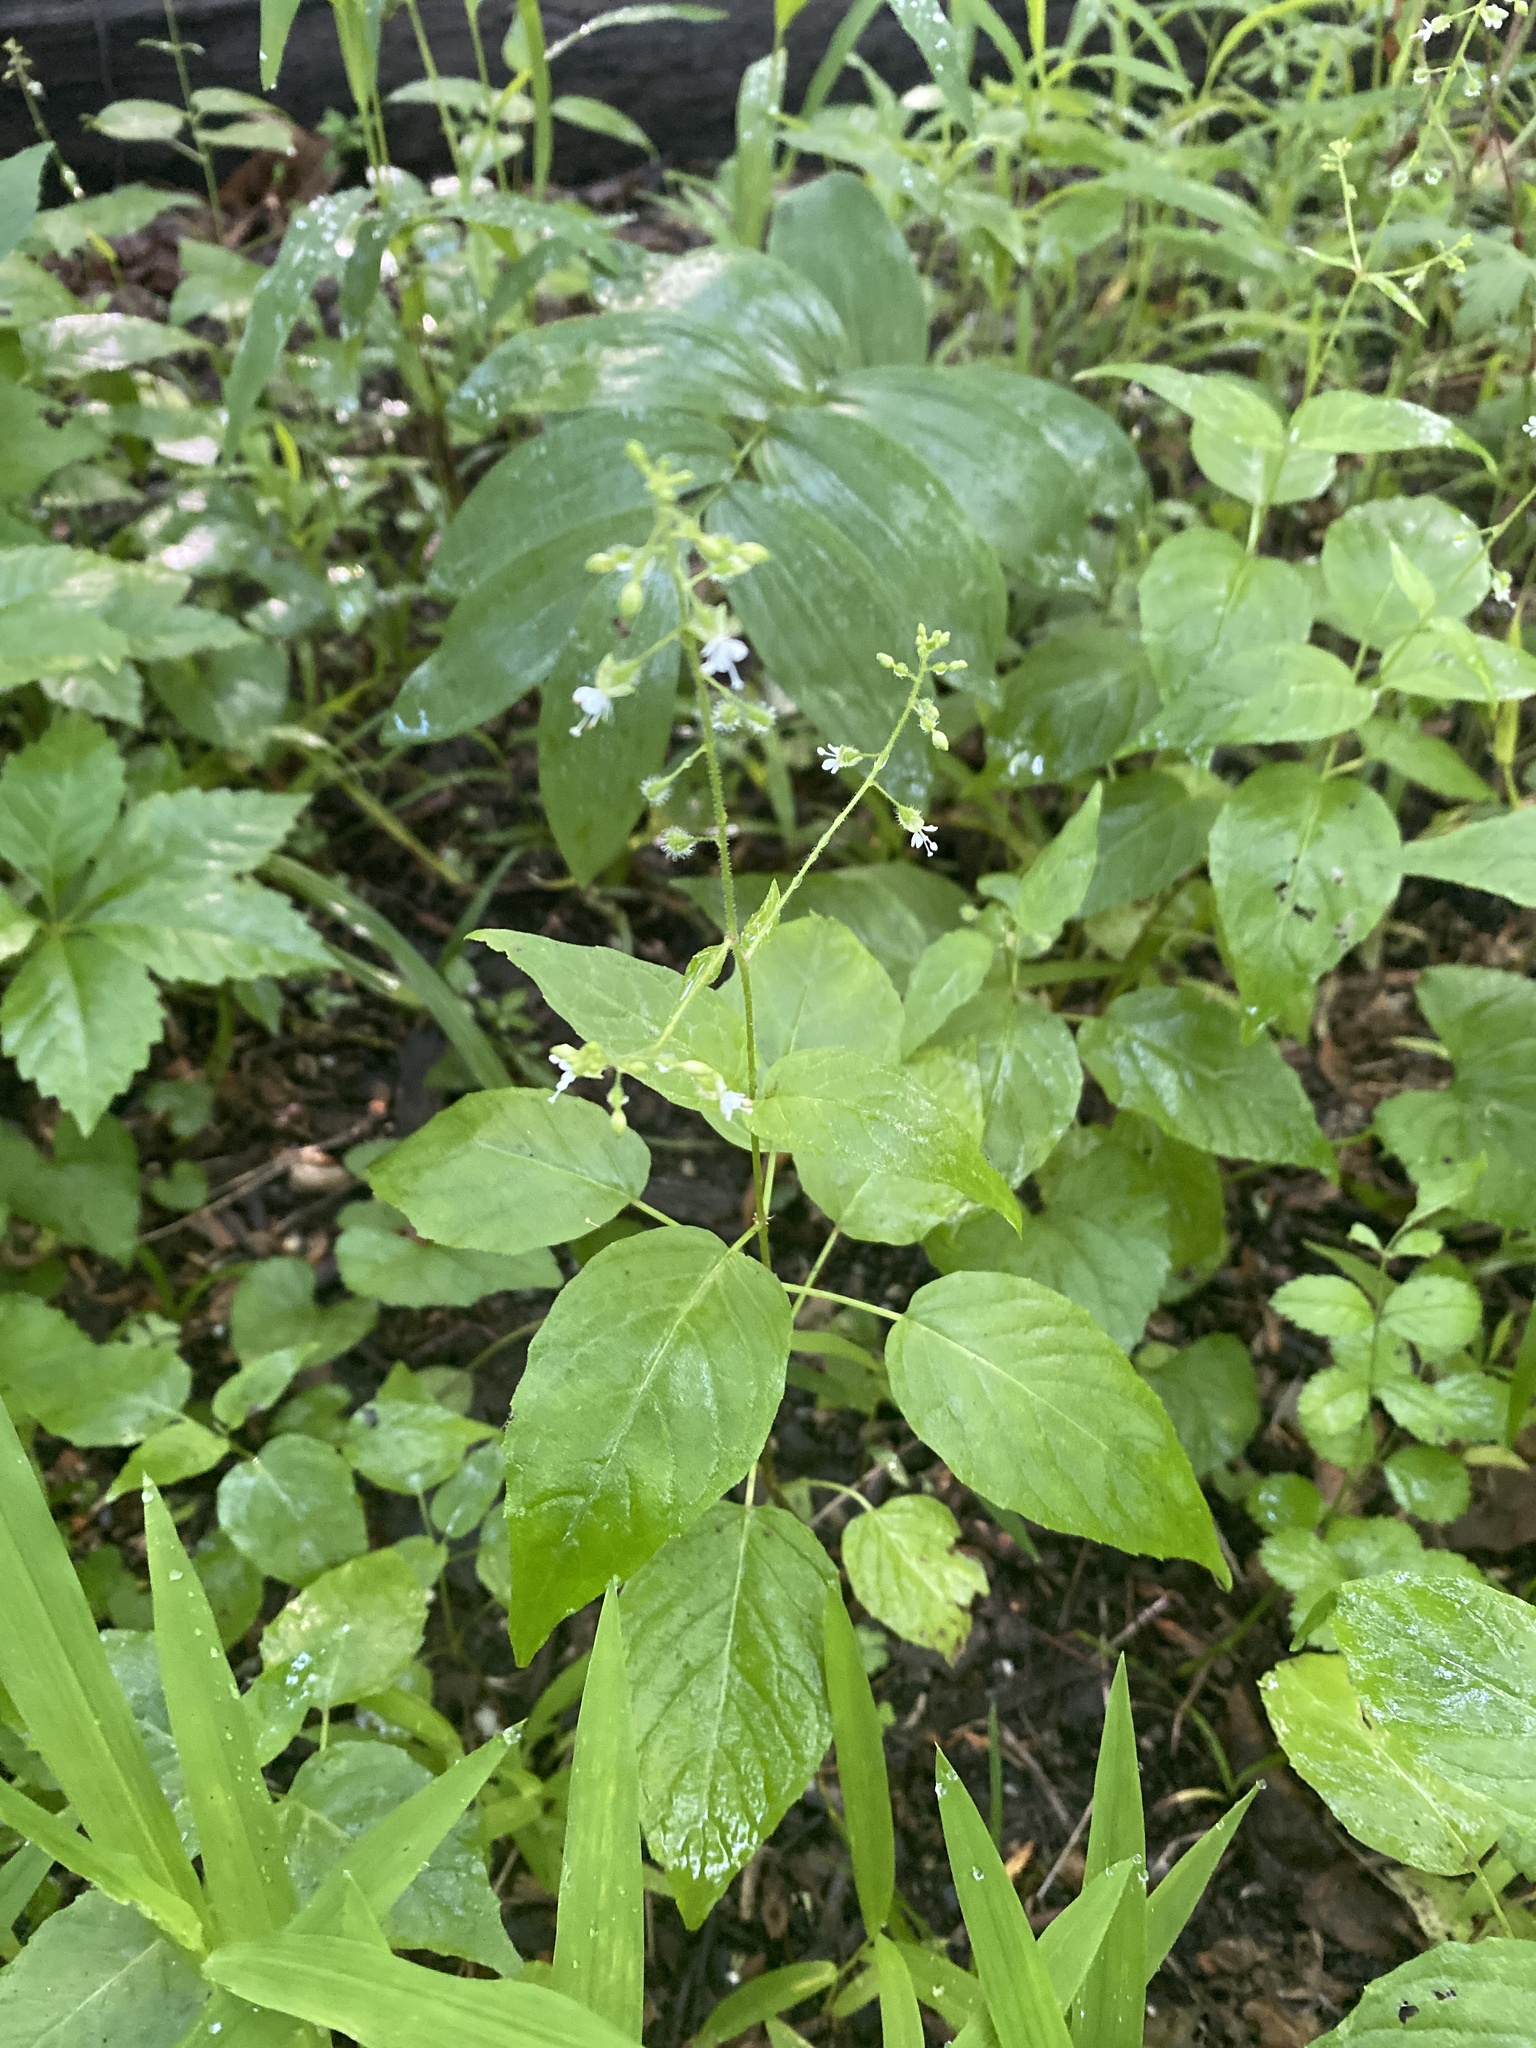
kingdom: Plantae
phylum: Tracheophyta
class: Magnoliopsida
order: Myrtales
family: Onagraceae
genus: Circaea
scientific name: Circaea canadensis
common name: Broad-leaved enchanter's nightshade
